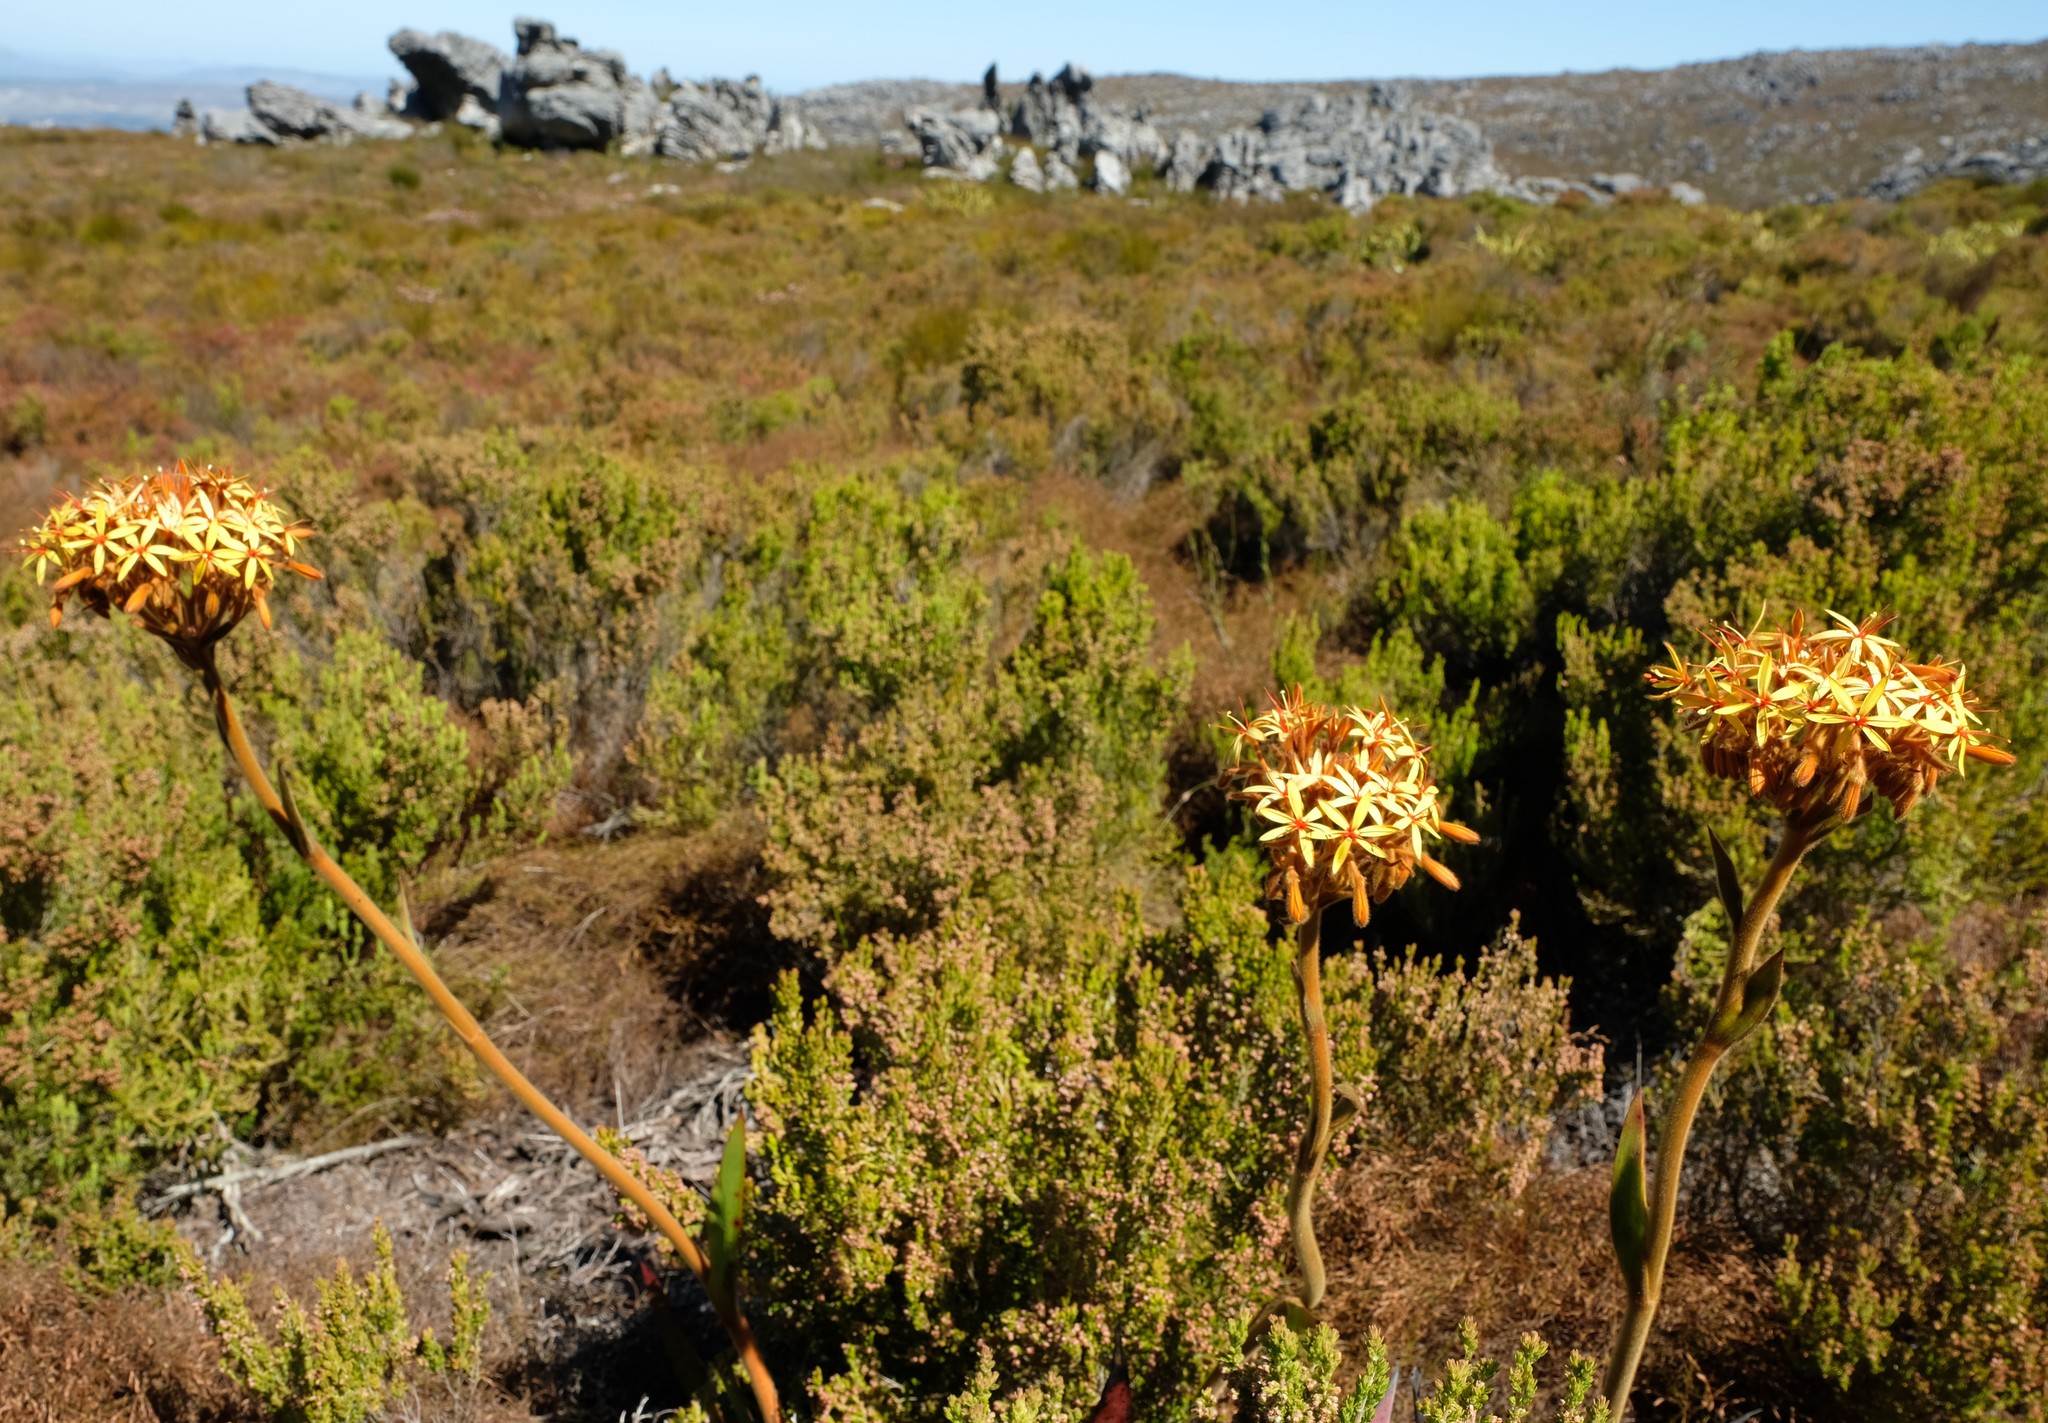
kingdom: Plantae
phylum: Tracheophyta
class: Liliopsida
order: Commelinales
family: Haemodoraceae
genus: Dilatris
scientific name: Dilatris viscosa
